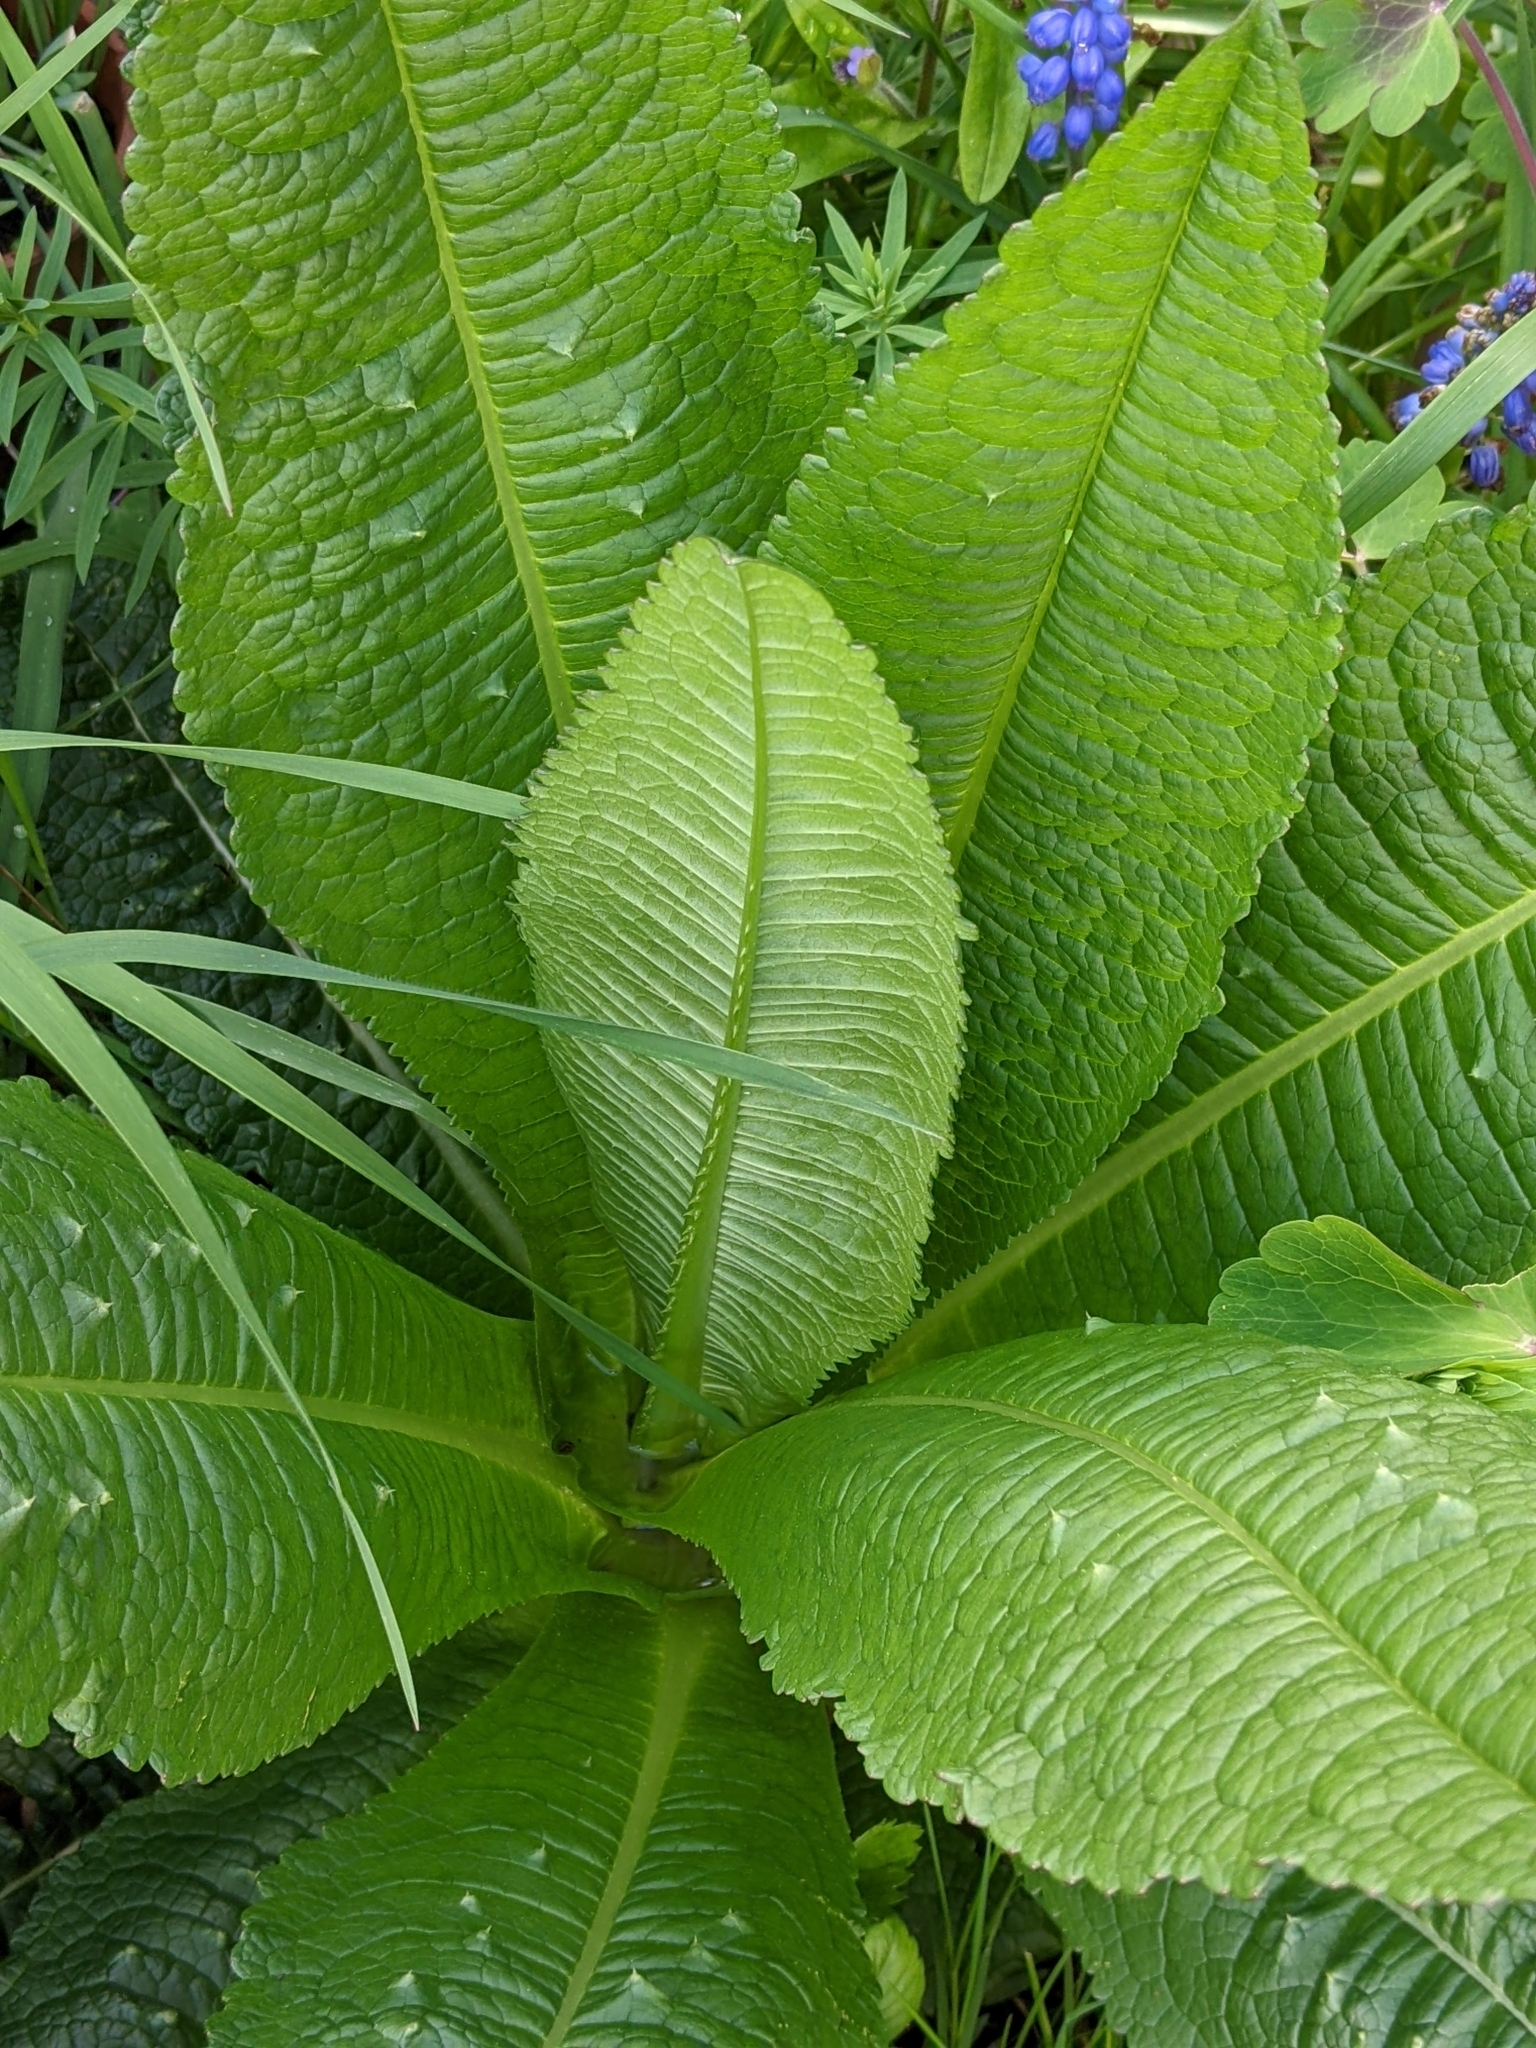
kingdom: Plantae
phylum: Tracheophyta
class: Magnoliopsida
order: Dipsacales
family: Caprifoliaceae
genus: Dipsacus
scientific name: Dipsacus fullonum
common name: Teasel
